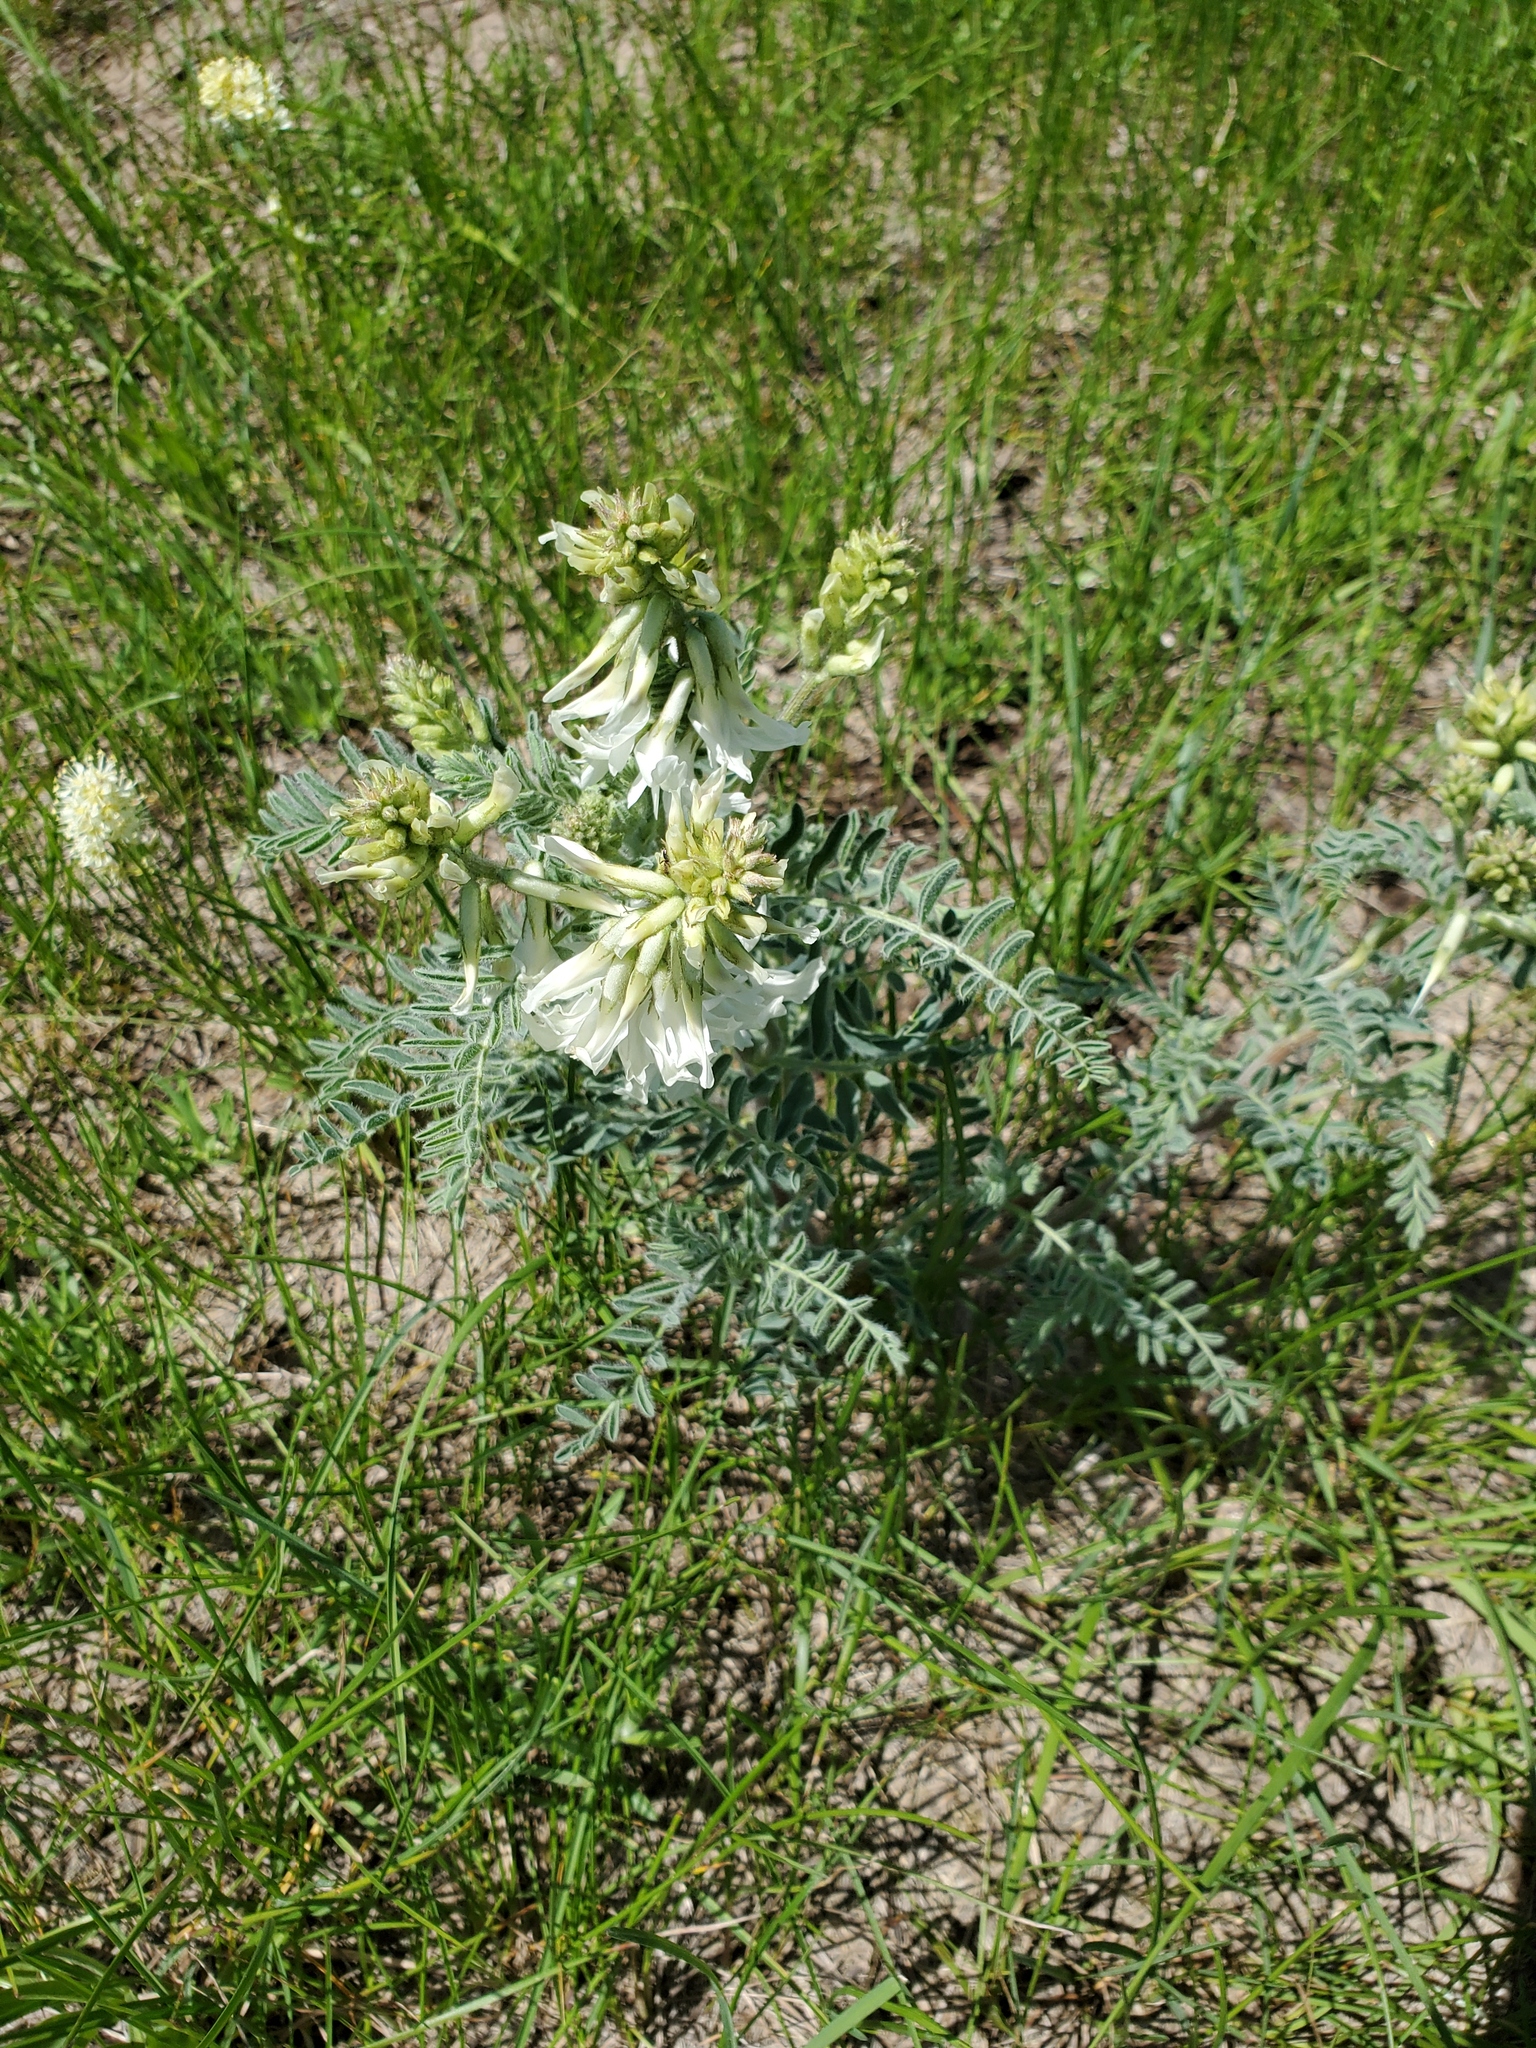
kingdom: Plantae
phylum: Tracheophyta
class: Magnoliopsida
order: Fabales
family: Fabaceae
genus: Astragalus
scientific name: Astragalus drummondii
